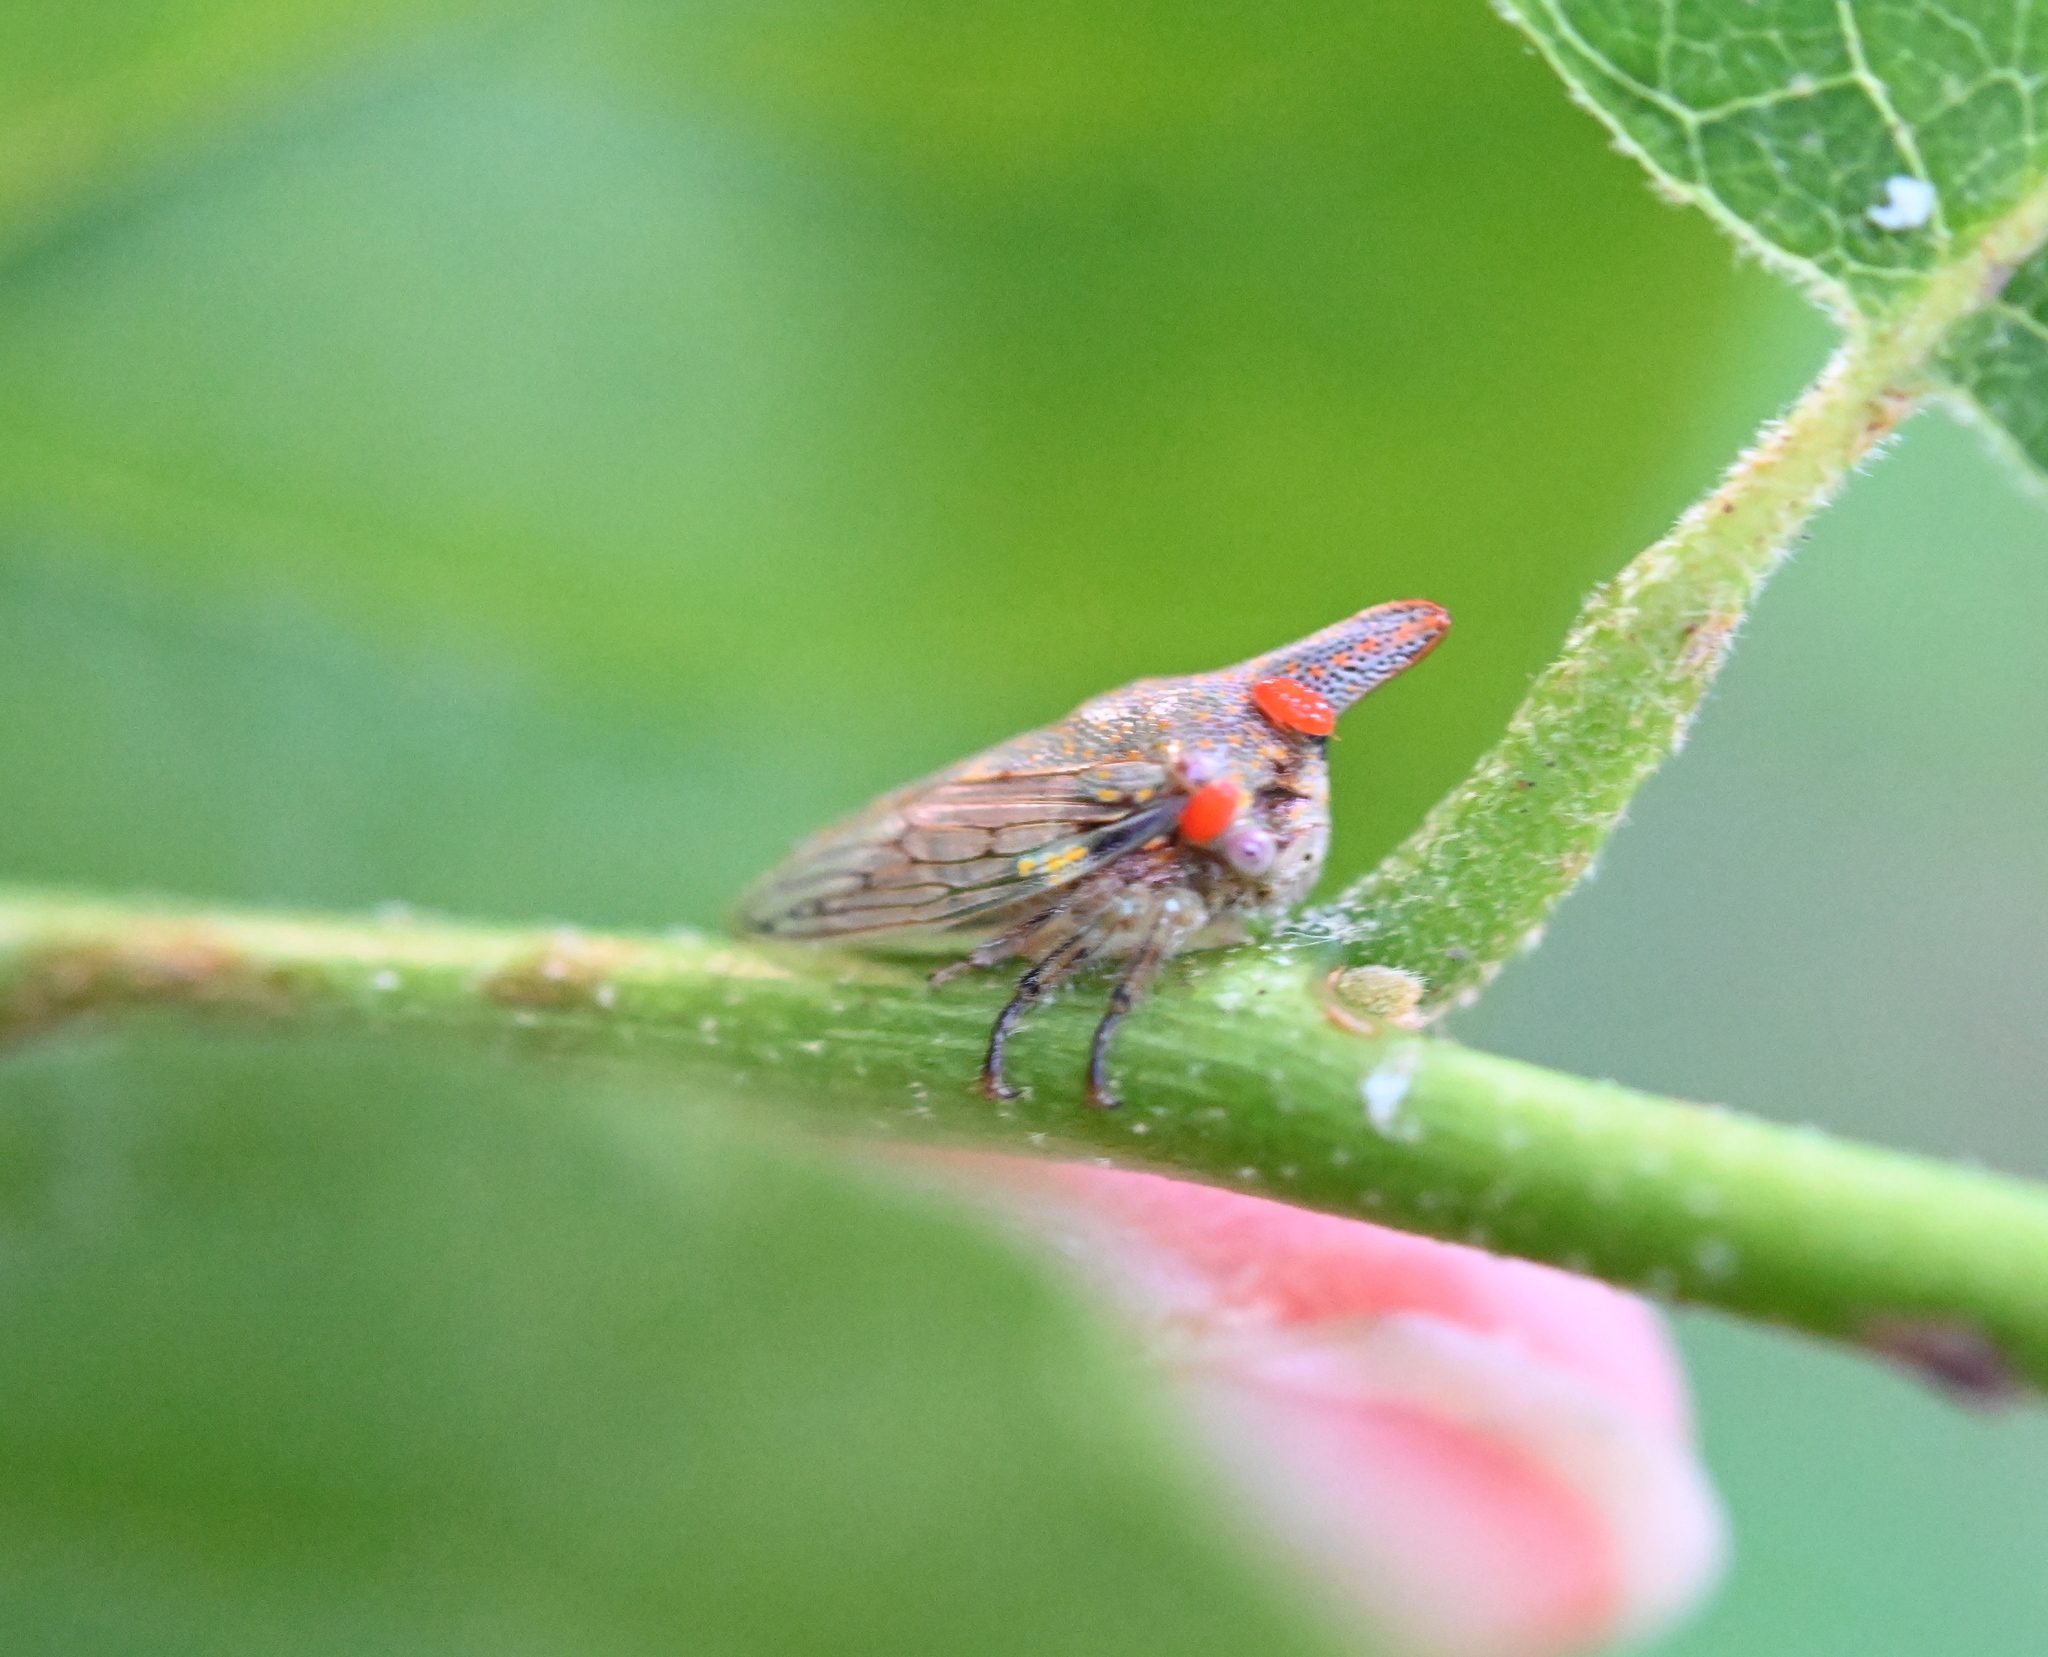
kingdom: Animalia
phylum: Arthropoda
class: Insecta
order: Hemiptera
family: Membracidae
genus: Platycotis
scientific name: Platycotis vittatus
